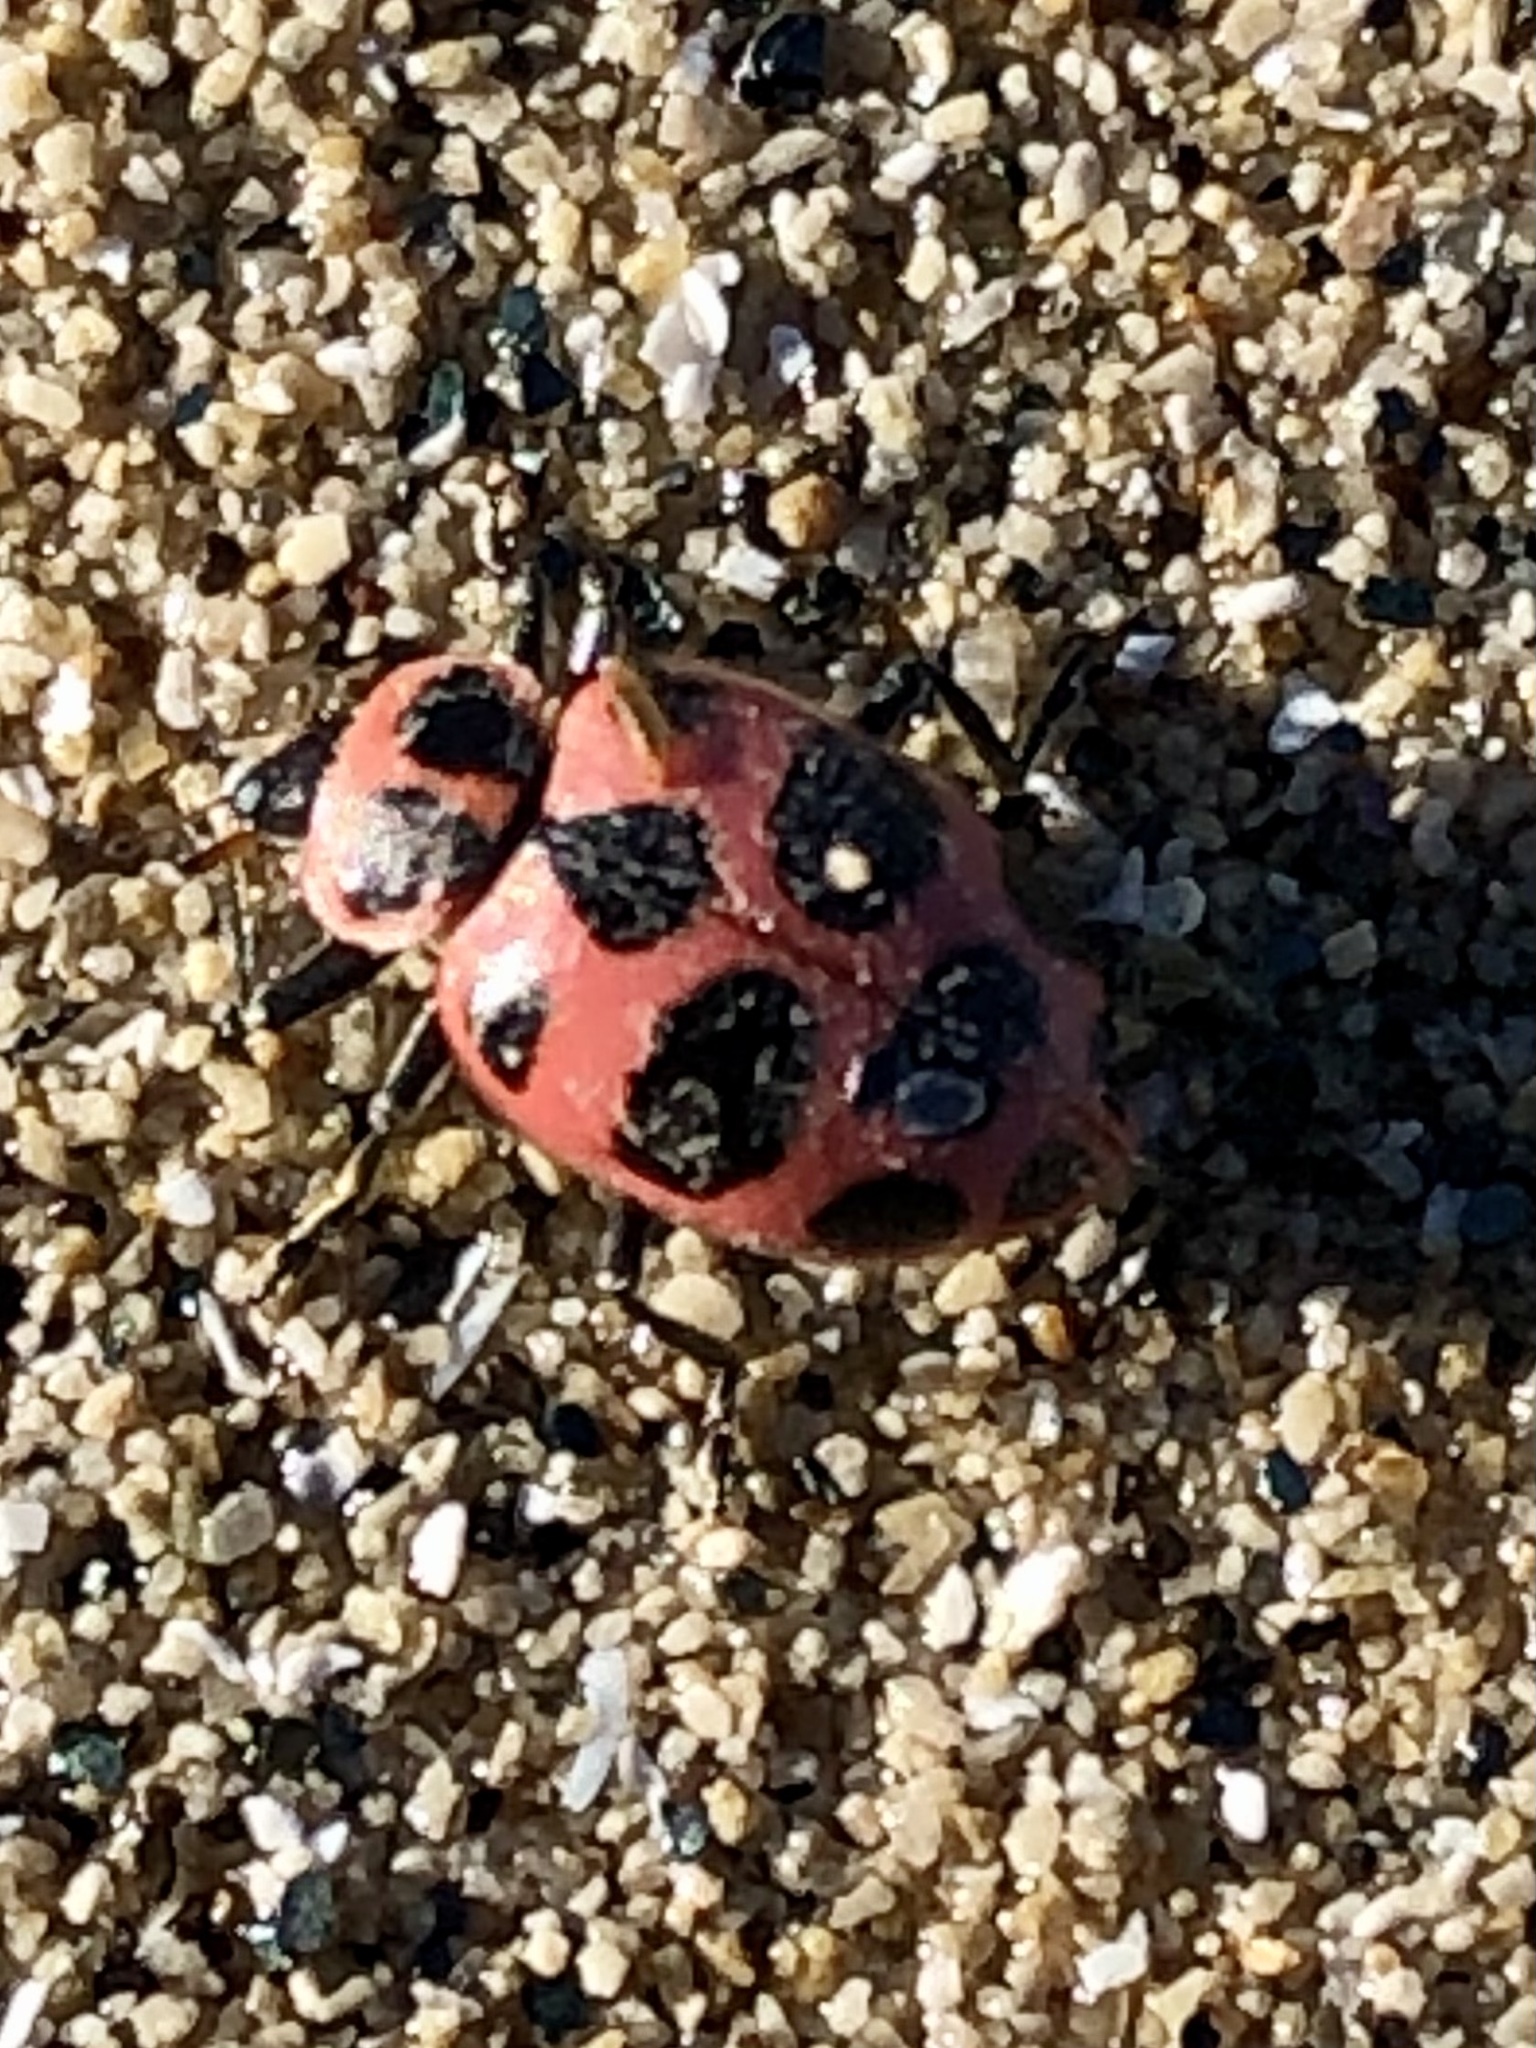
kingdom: Animalia
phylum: Arthropoda
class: Insecta
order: Coleoptera
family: Coccinellidae
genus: Coleomegilla
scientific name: Coleomegilla maculata
